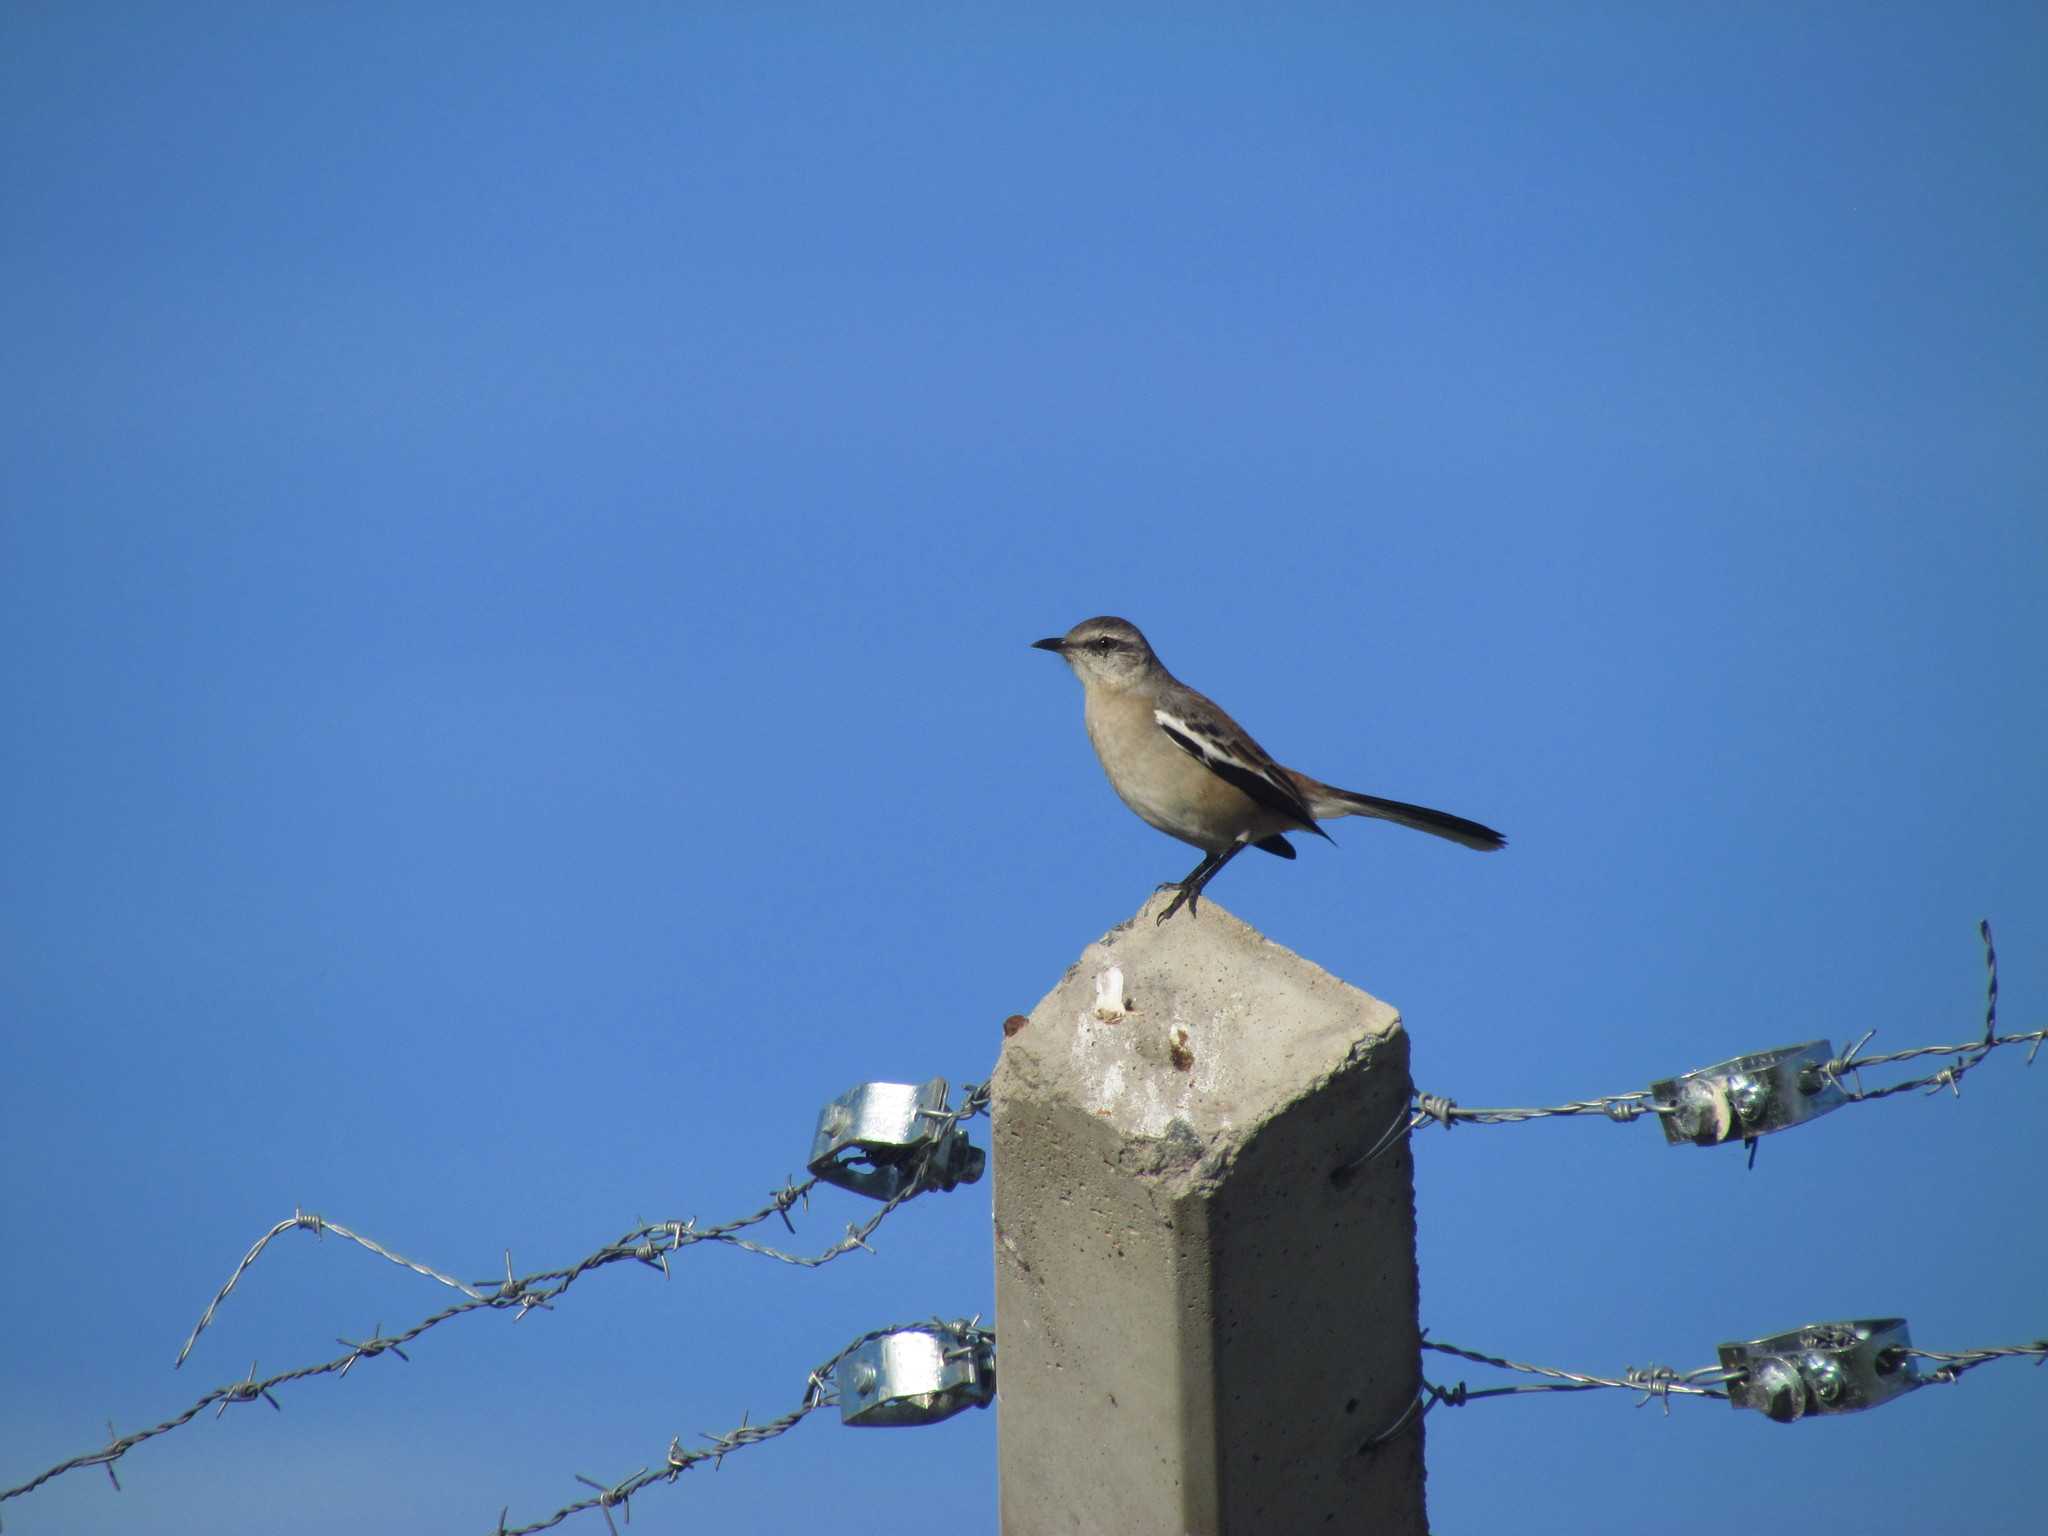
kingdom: Animalia
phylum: Chordata
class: Aves
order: Passeriformes
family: Mimidae
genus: Mimus
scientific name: Mimus triurus
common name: White-banded mockingbird
